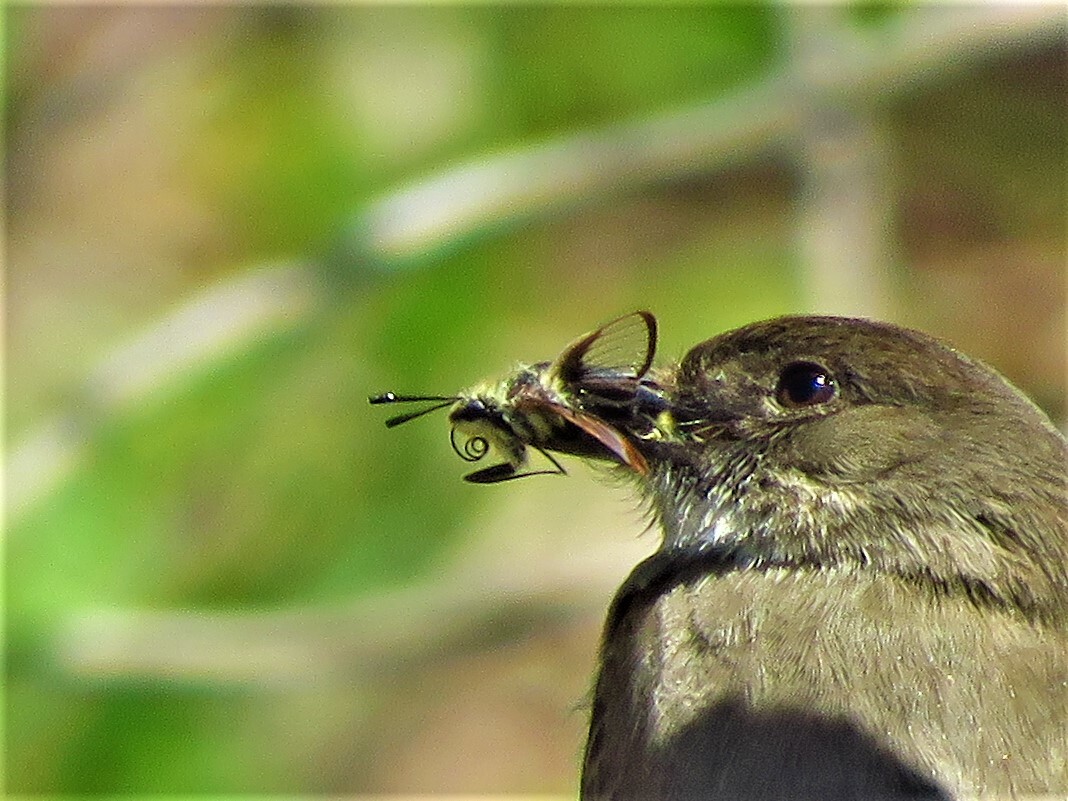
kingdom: Animalia
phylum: Arthropoda
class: Insecta
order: Lepidoptera
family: Sphingidae
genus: Hemaris
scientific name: Hemaris diffinis
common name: Bumblebee moth
